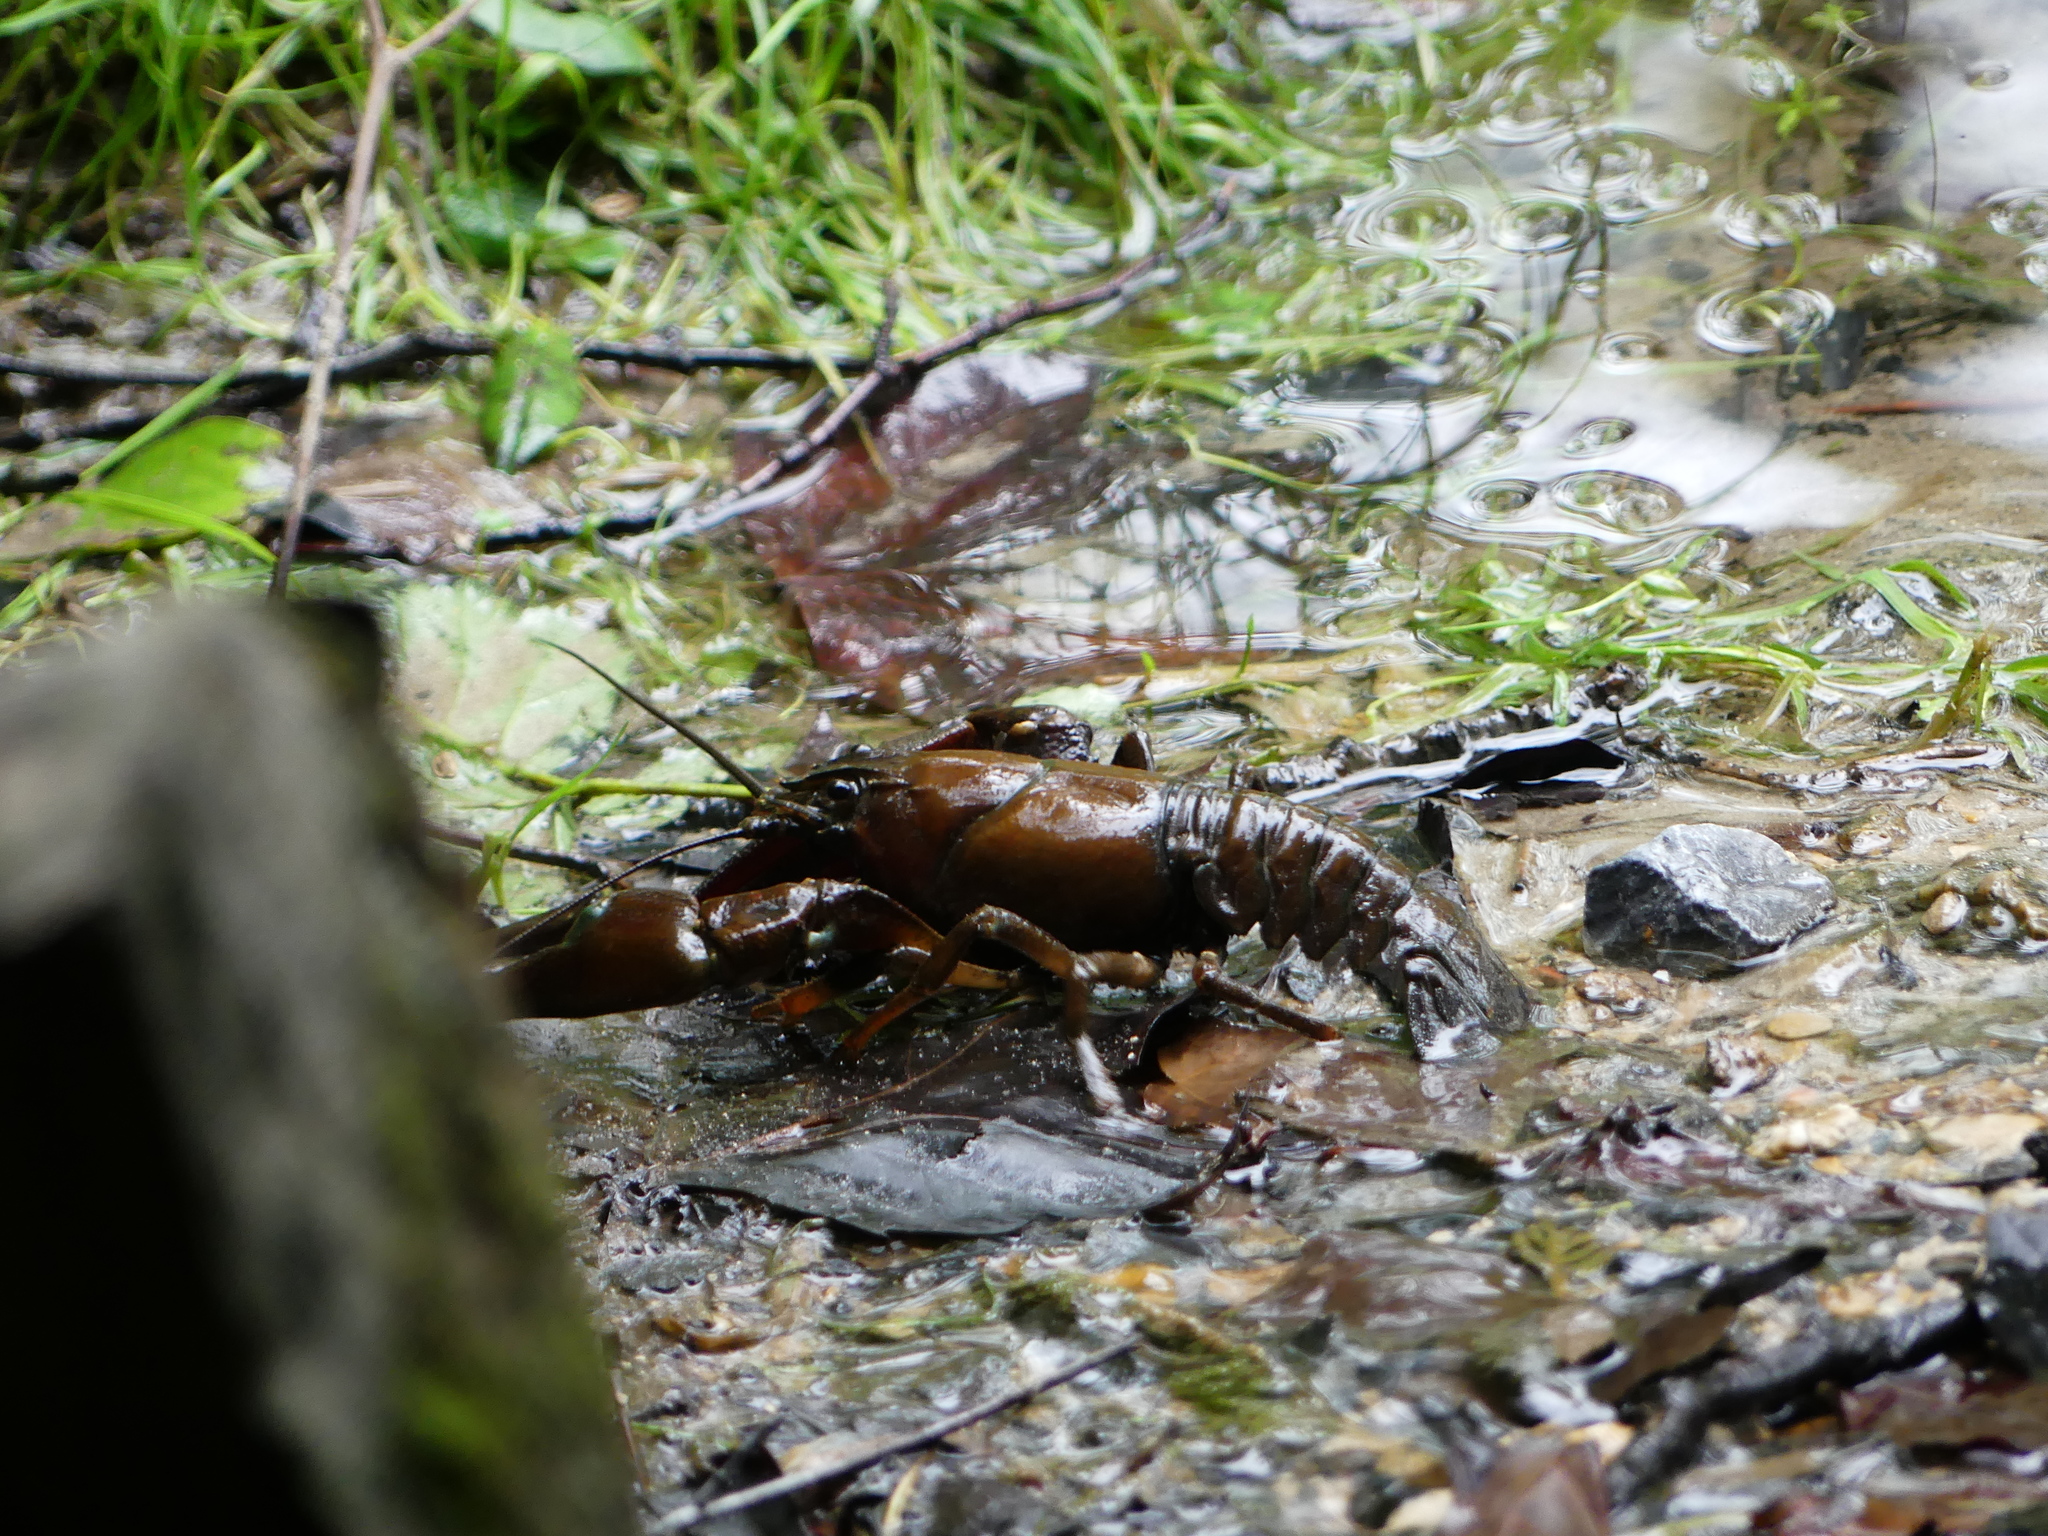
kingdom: Animalia
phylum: Arthropoda
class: Malacostraca
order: Decapoda
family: Astacidae
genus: Pacifastacus
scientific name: Pacifastacus leniusculus
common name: Signal crayfish
